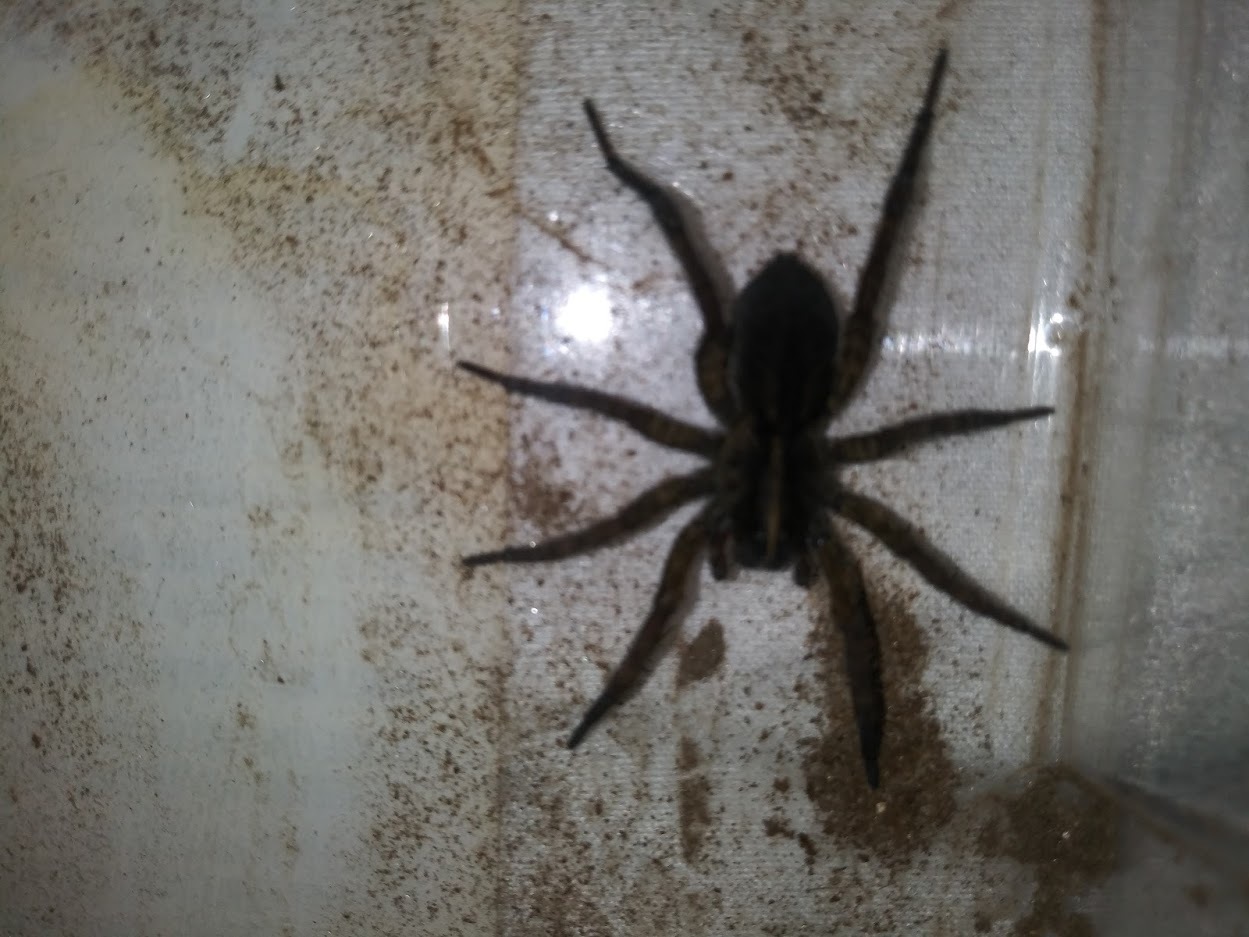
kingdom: Animalia
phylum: Arthropoda
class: Arachnida
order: Araneae
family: Lycosidae
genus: Tigrosa
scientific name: Tigrosa helluo
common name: Wetland giant wolf spider
